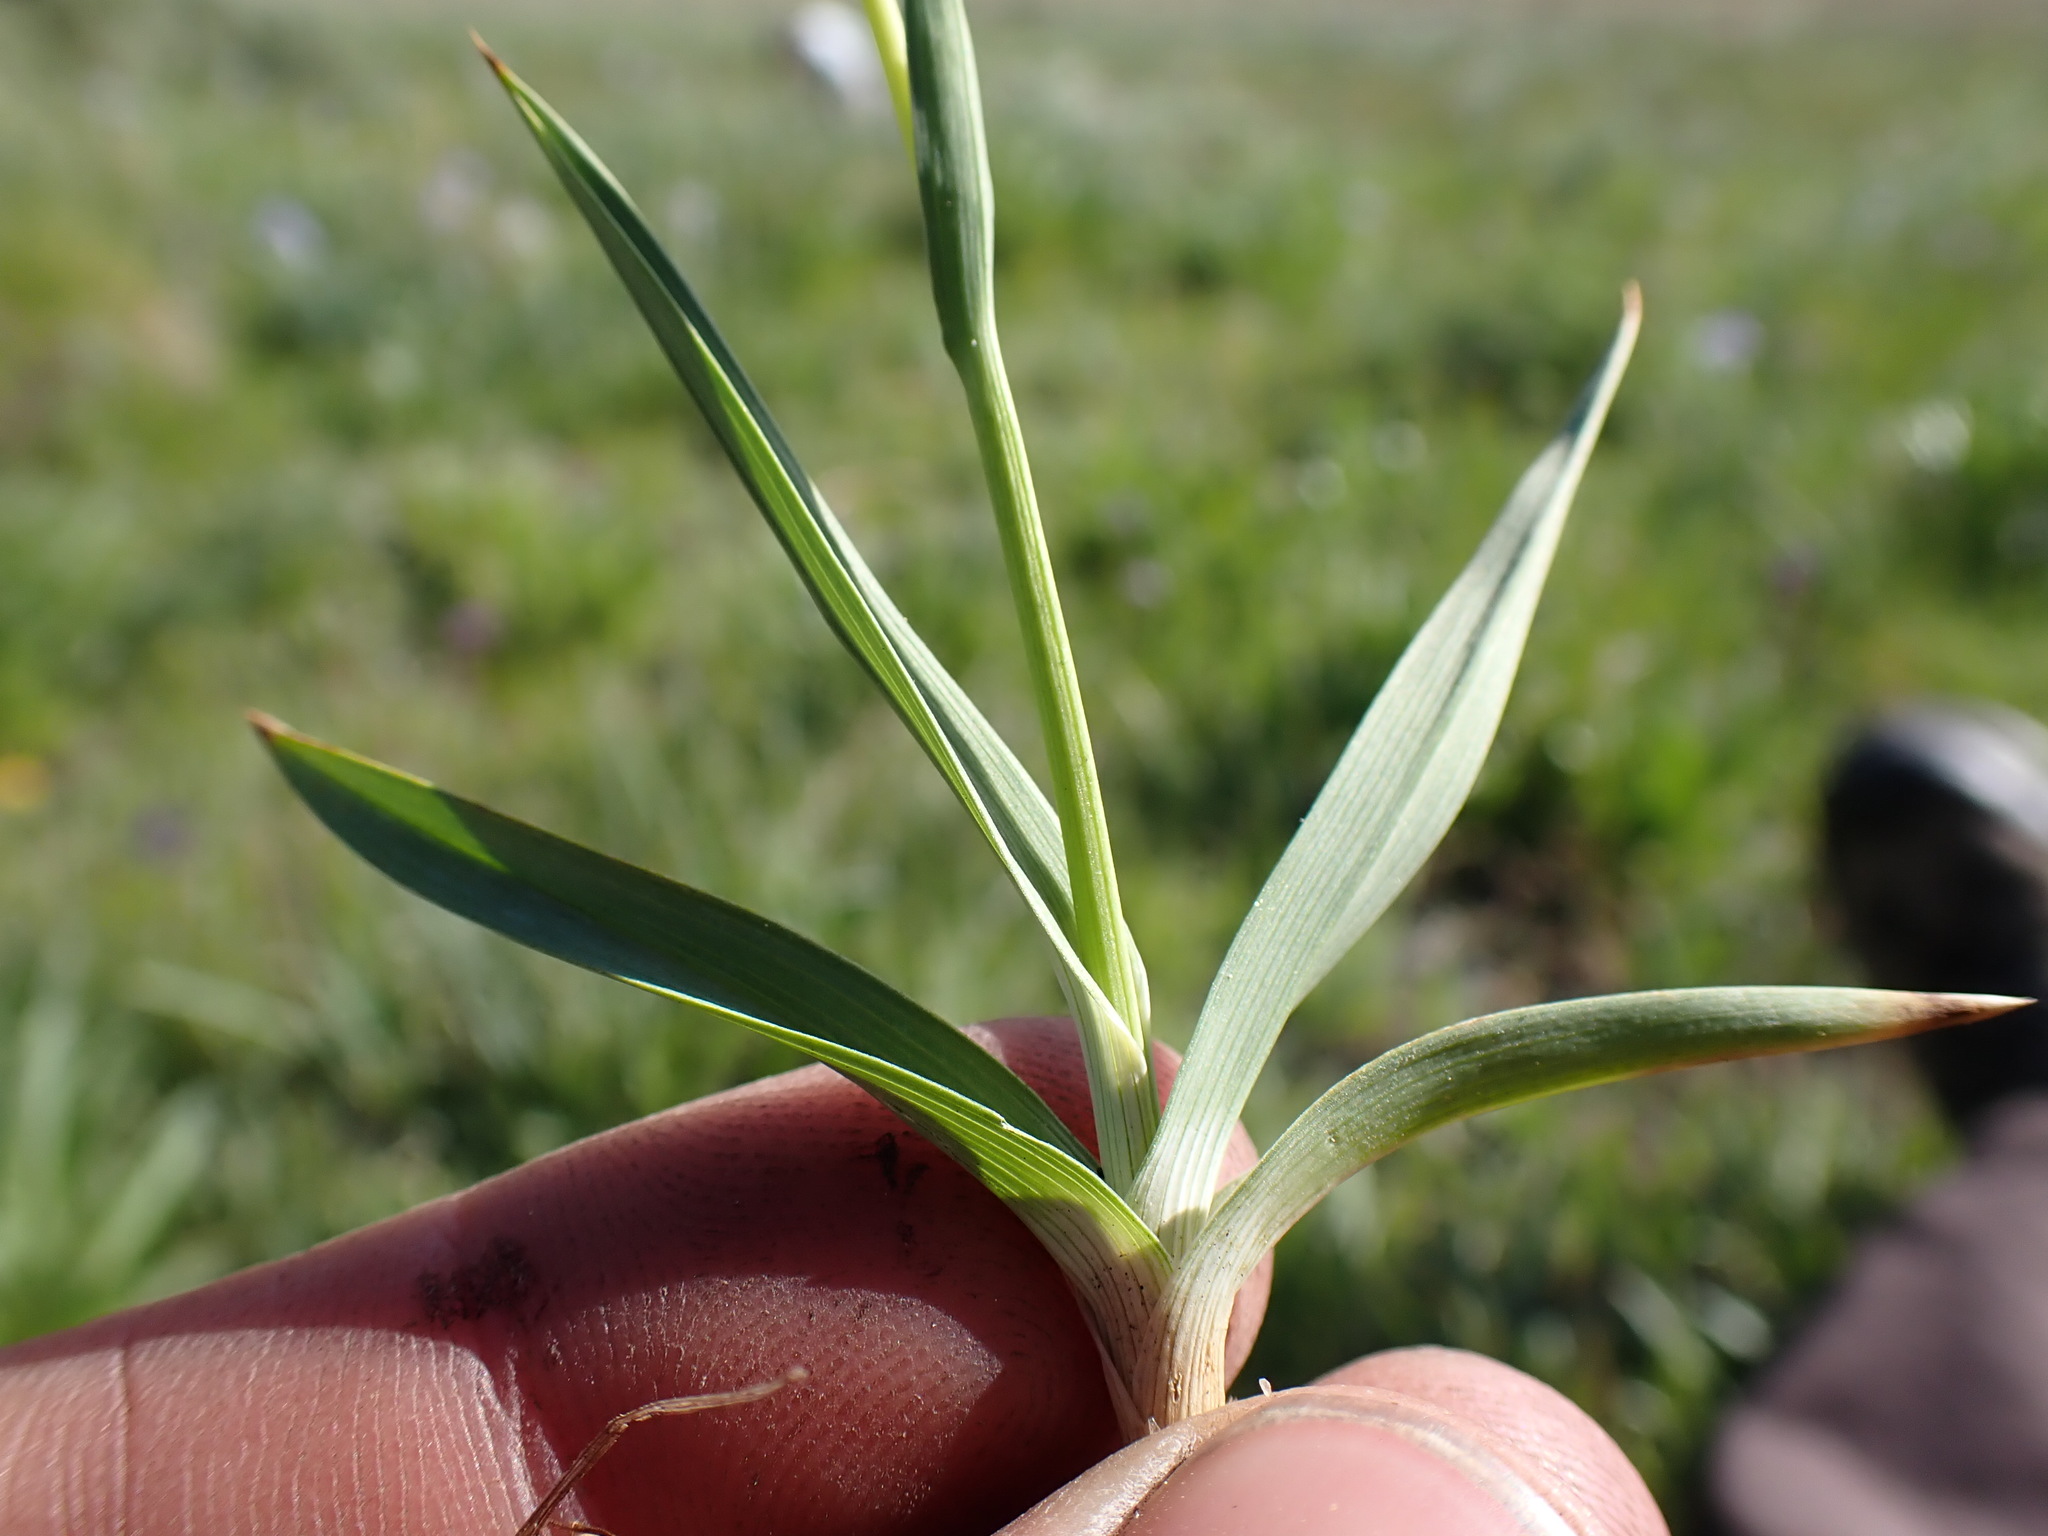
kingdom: Plantae
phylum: Tracheophyta
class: Liliopsida
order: Poales
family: Juncaceae
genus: Juncus
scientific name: Juncus orthophyllus
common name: Straight-leaf rush
